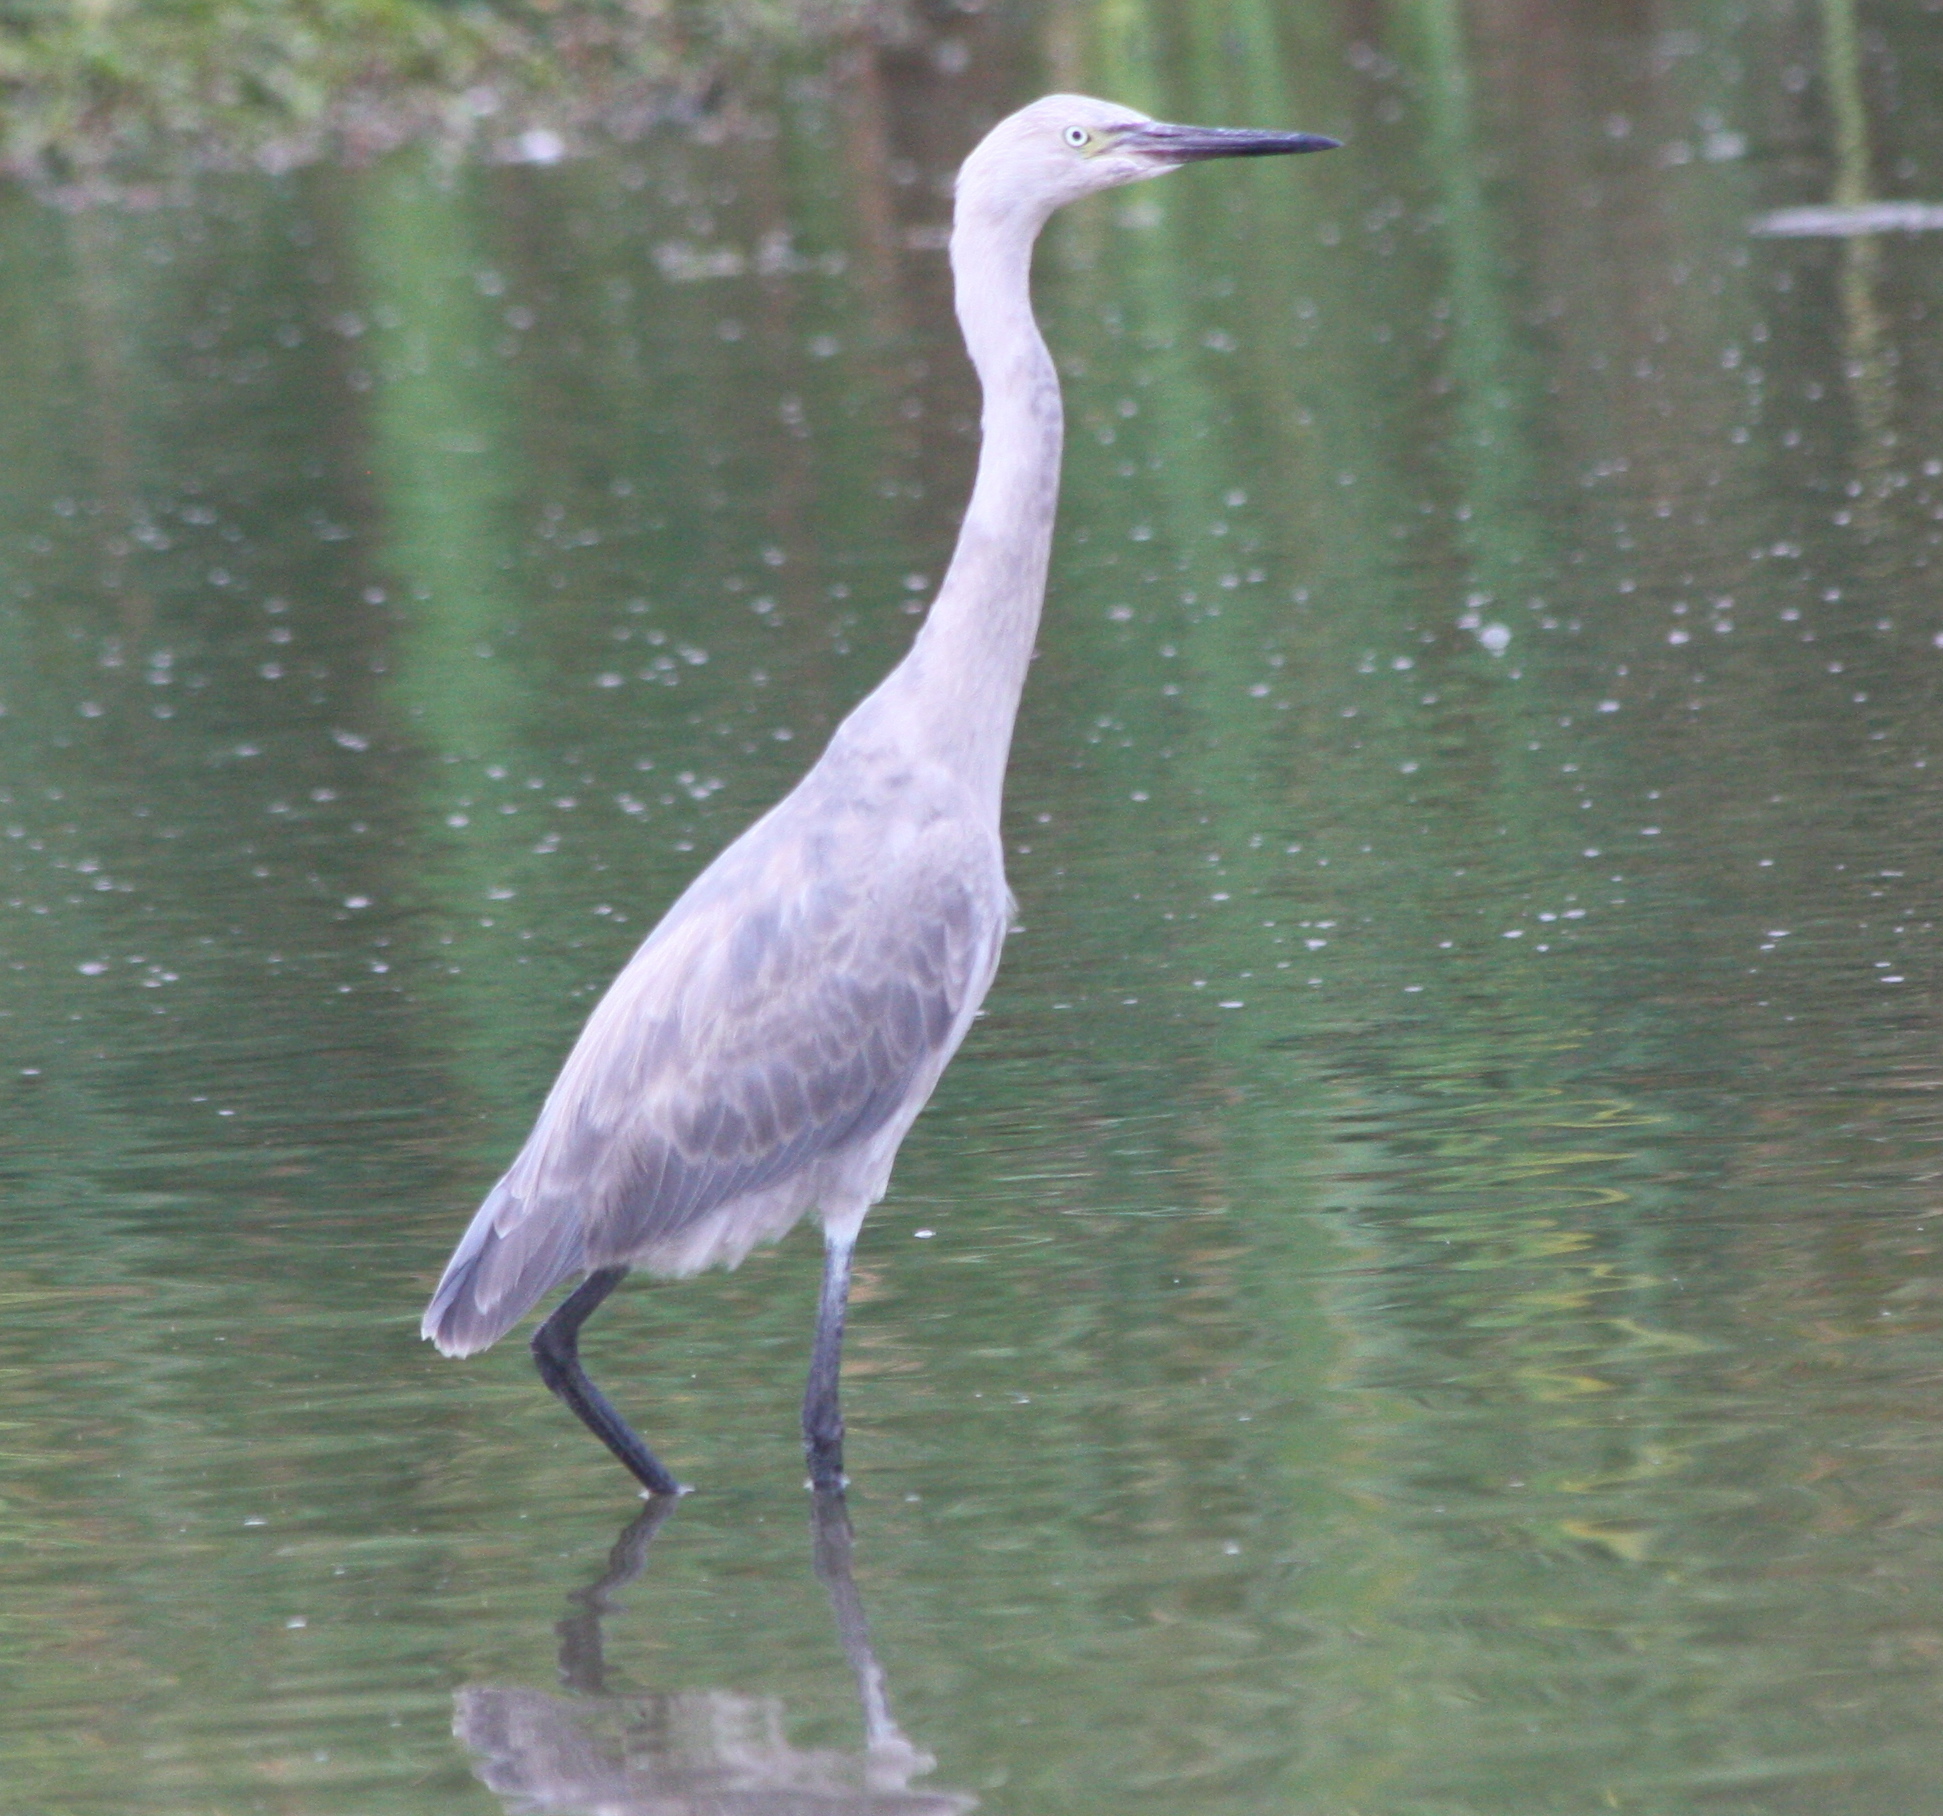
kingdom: Animalia
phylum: Chordata
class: Aves
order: Pelecaniformes
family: Ardeidae
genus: Egretta
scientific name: Egretta rufescens
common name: Reddish egret
